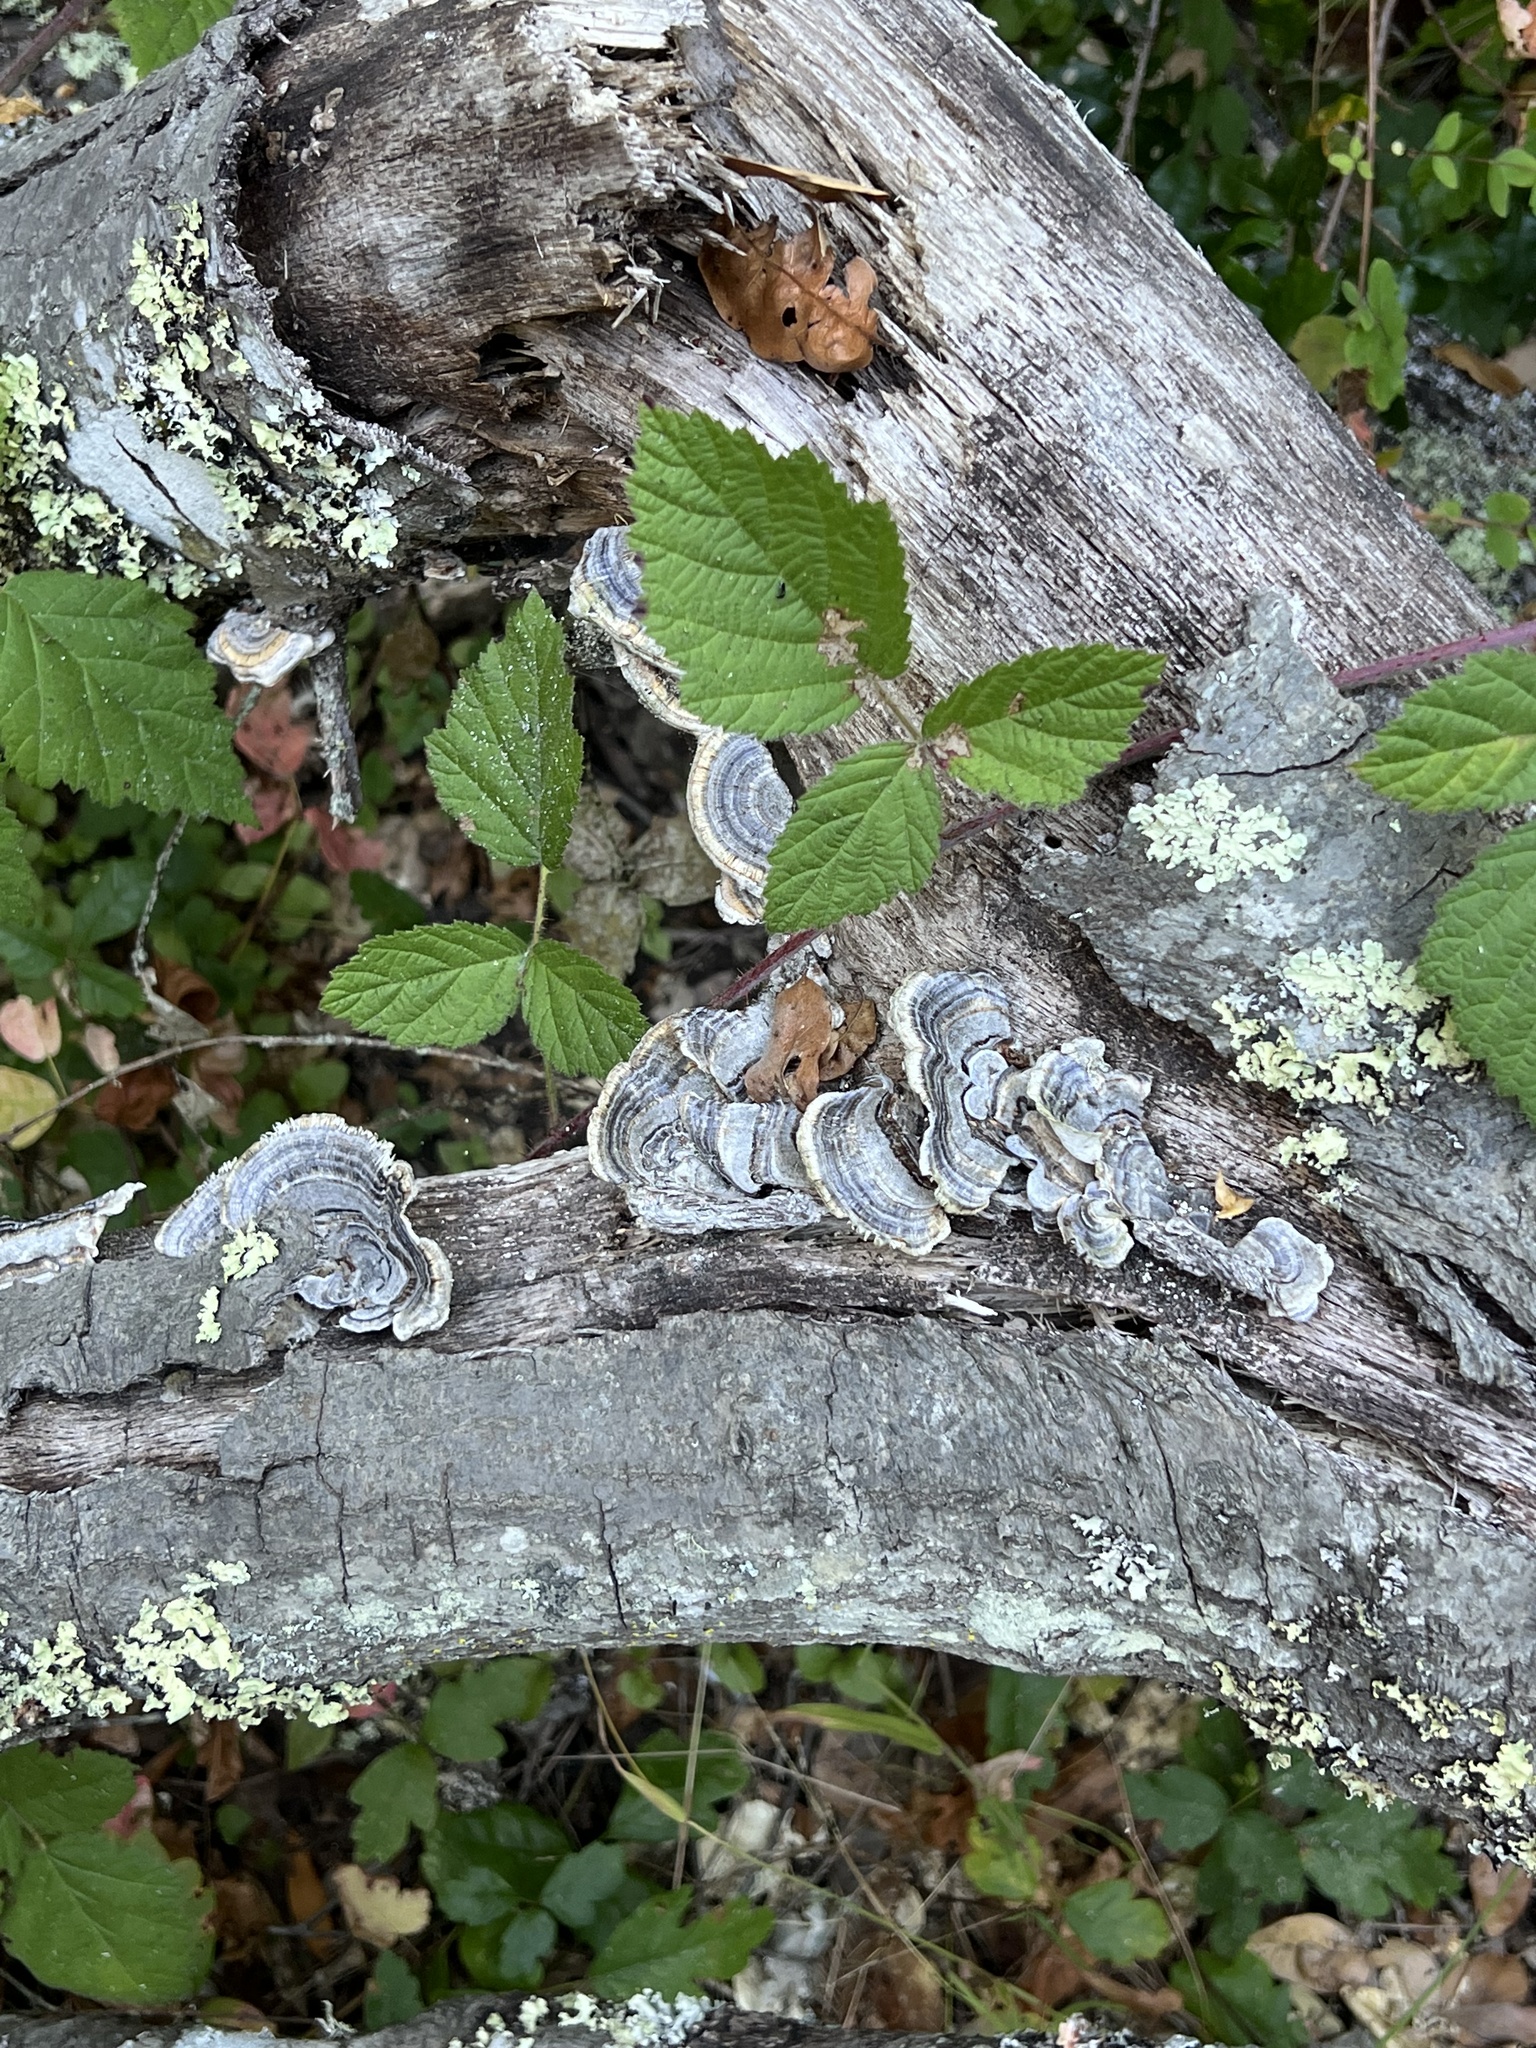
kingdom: Fungi
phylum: Basidiomycota
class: Agaricomycetes
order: Polyporales
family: Polyporaceae
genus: Trametes
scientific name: Trametes versicolor
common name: Turkeytail
